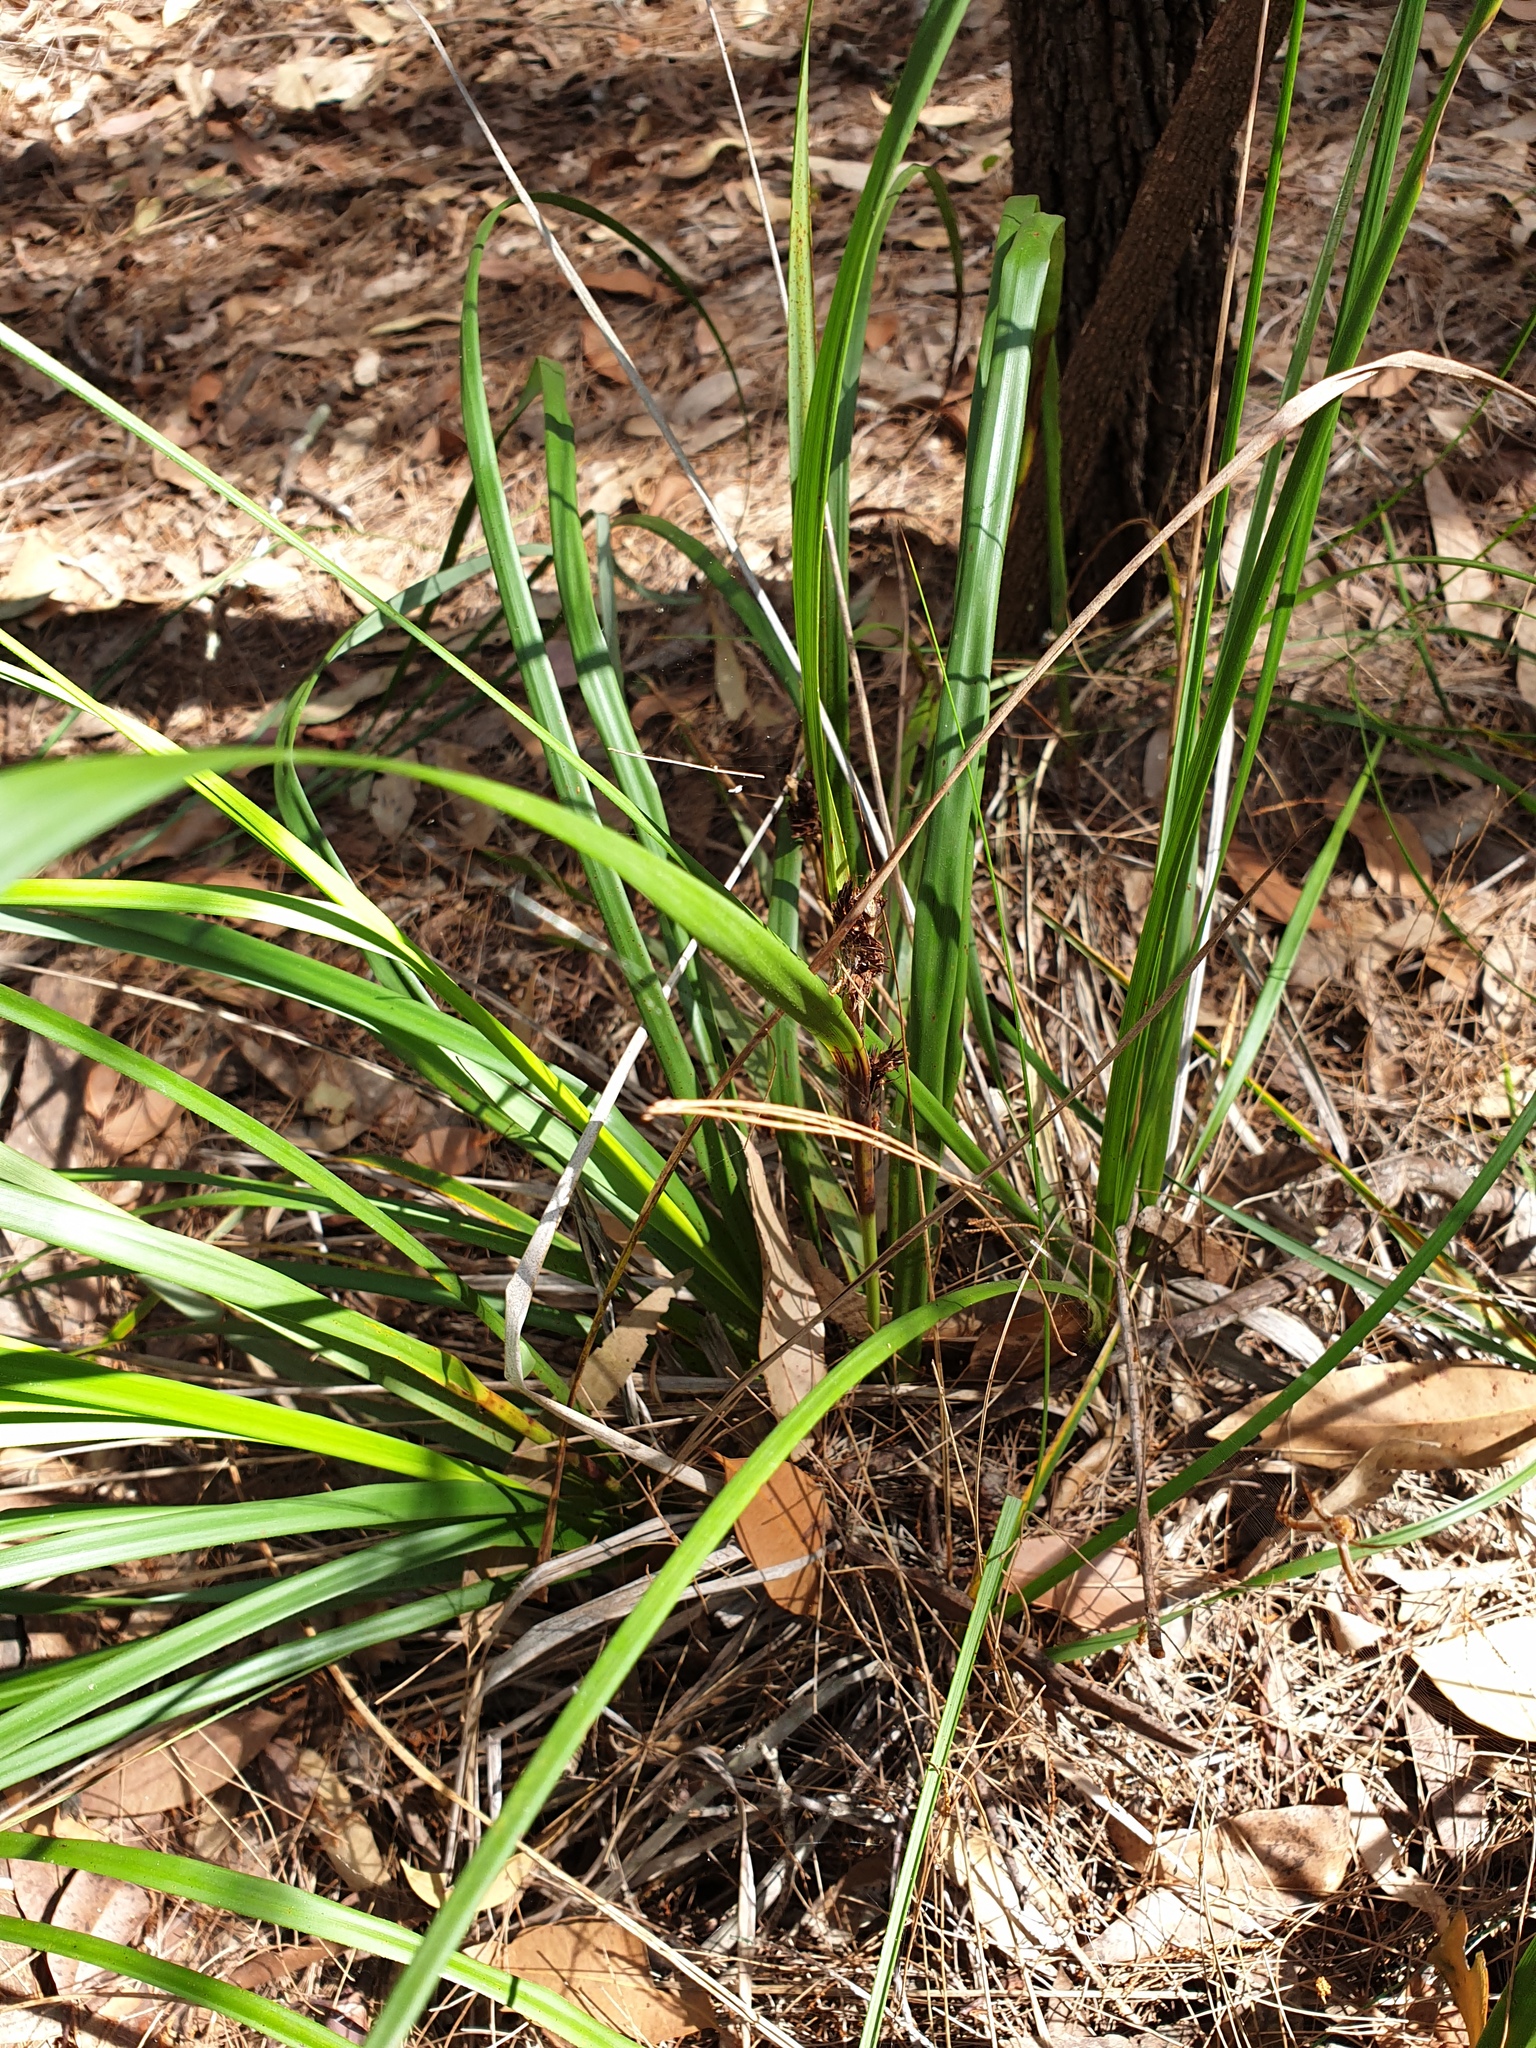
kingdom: Plantae
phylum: Tracheophyta
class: Liliopsida
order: Poales
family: Cyperaceae
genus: Gahnia
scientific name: Gahnia aspera
